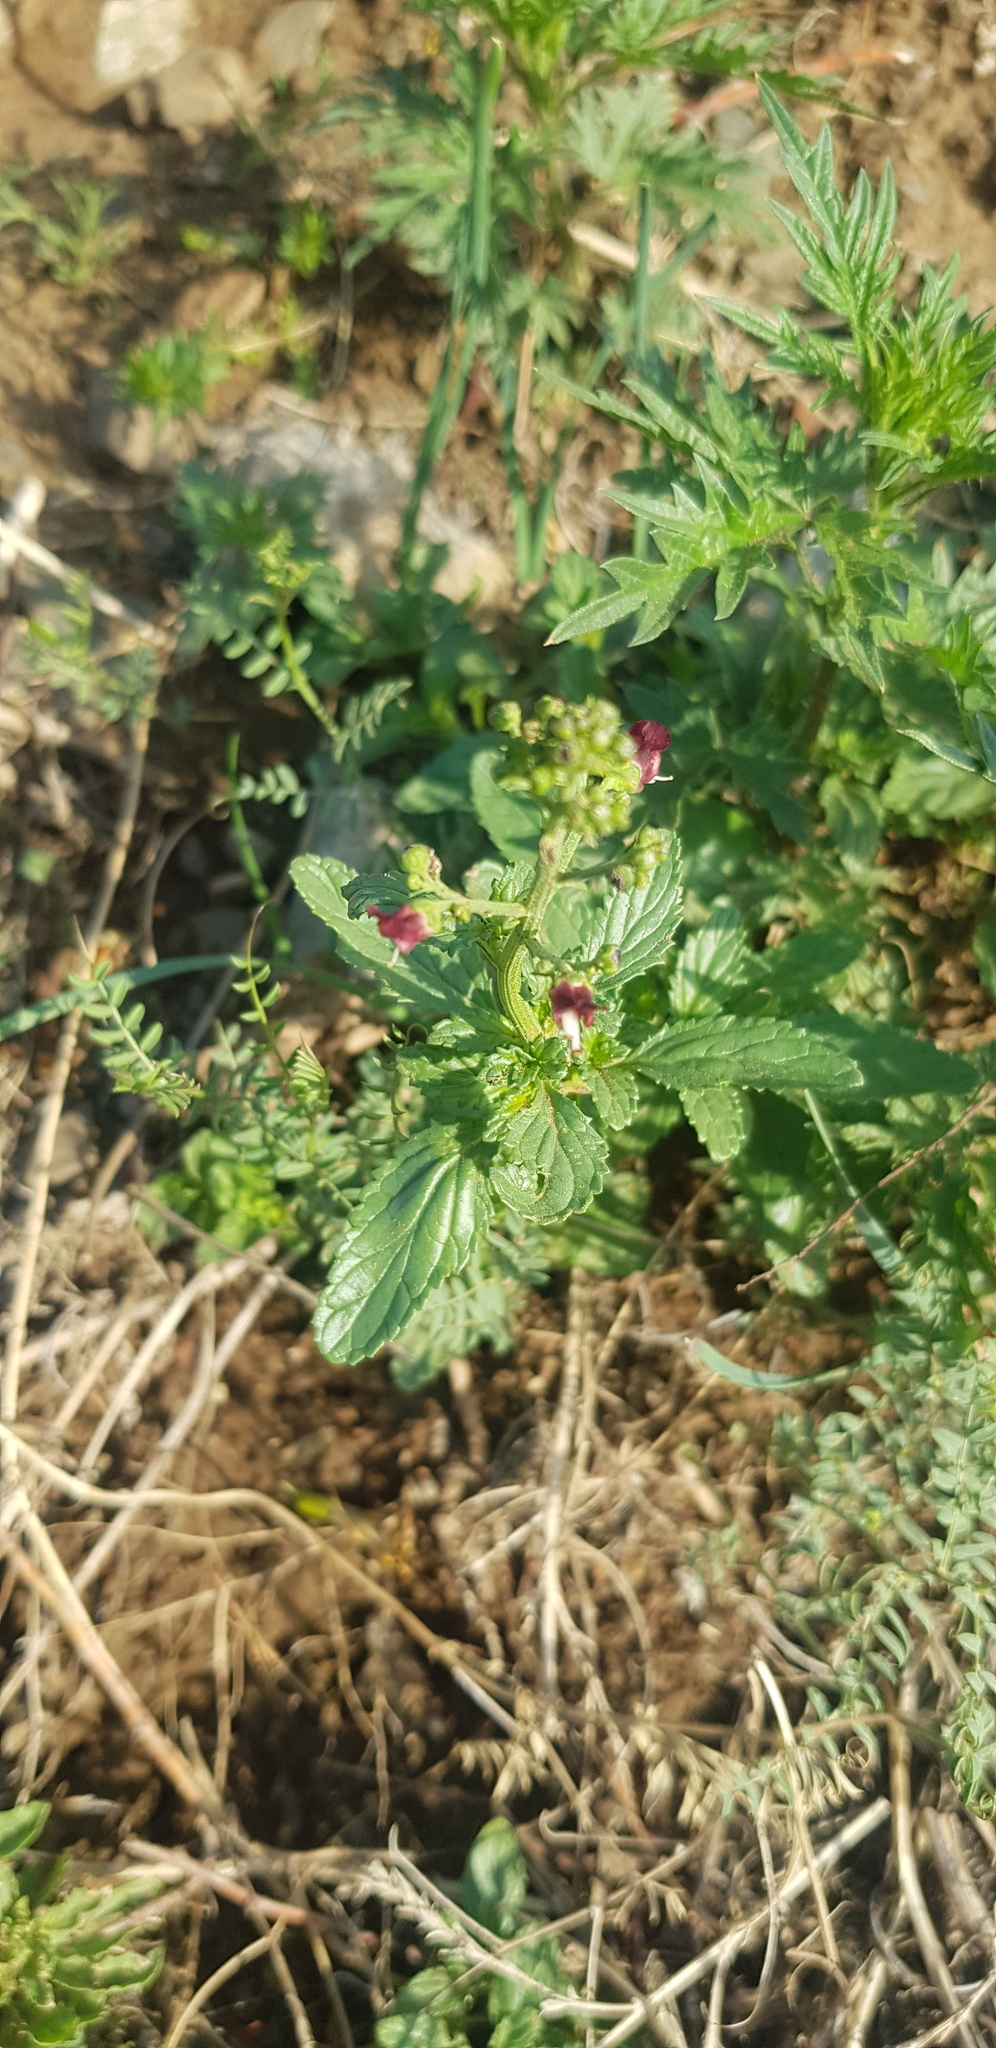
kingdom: Plantae
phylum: Tracheophyta
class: Magnoliopsida
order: Lamiales
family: Scrophulariaceae
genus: Scrophularia
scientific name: Scrophularia incisa
